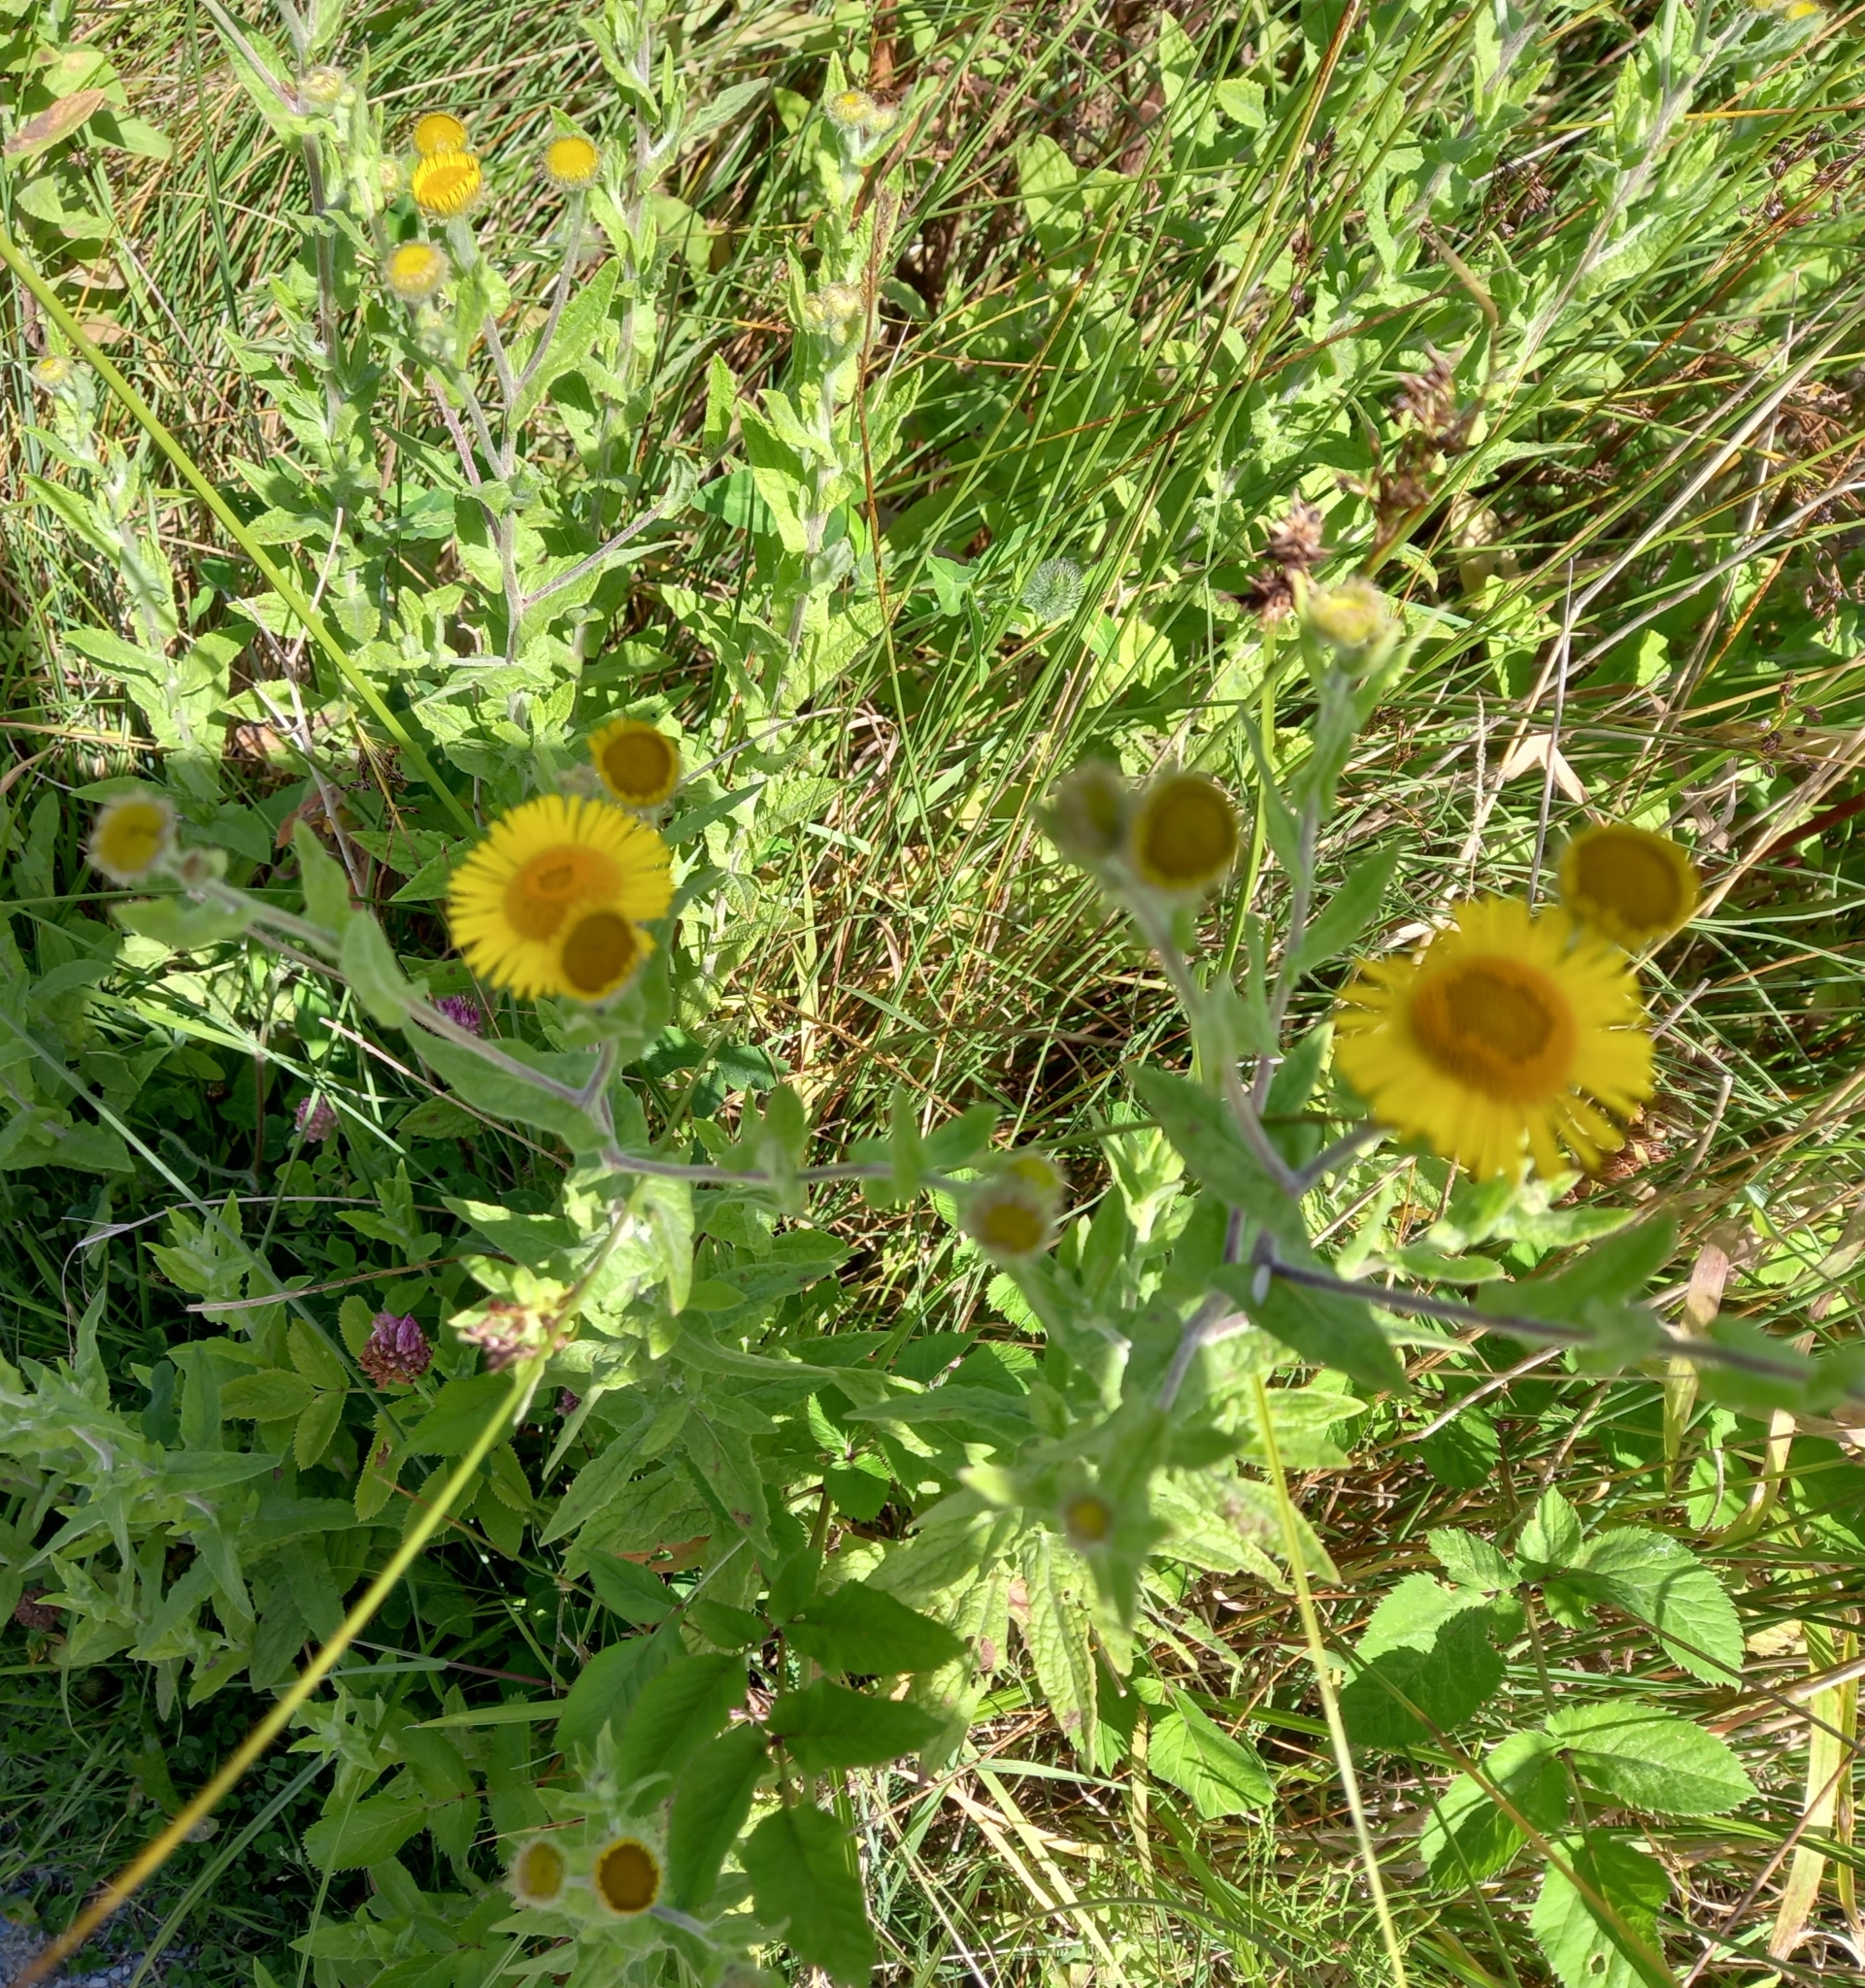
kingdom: Plantae
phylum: Tracheophyta
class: Magnoliopsida
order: Asterales
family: Asteraceae
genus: Pulicaria
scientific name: Pulicaria dysenterica
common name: Common fleabane
